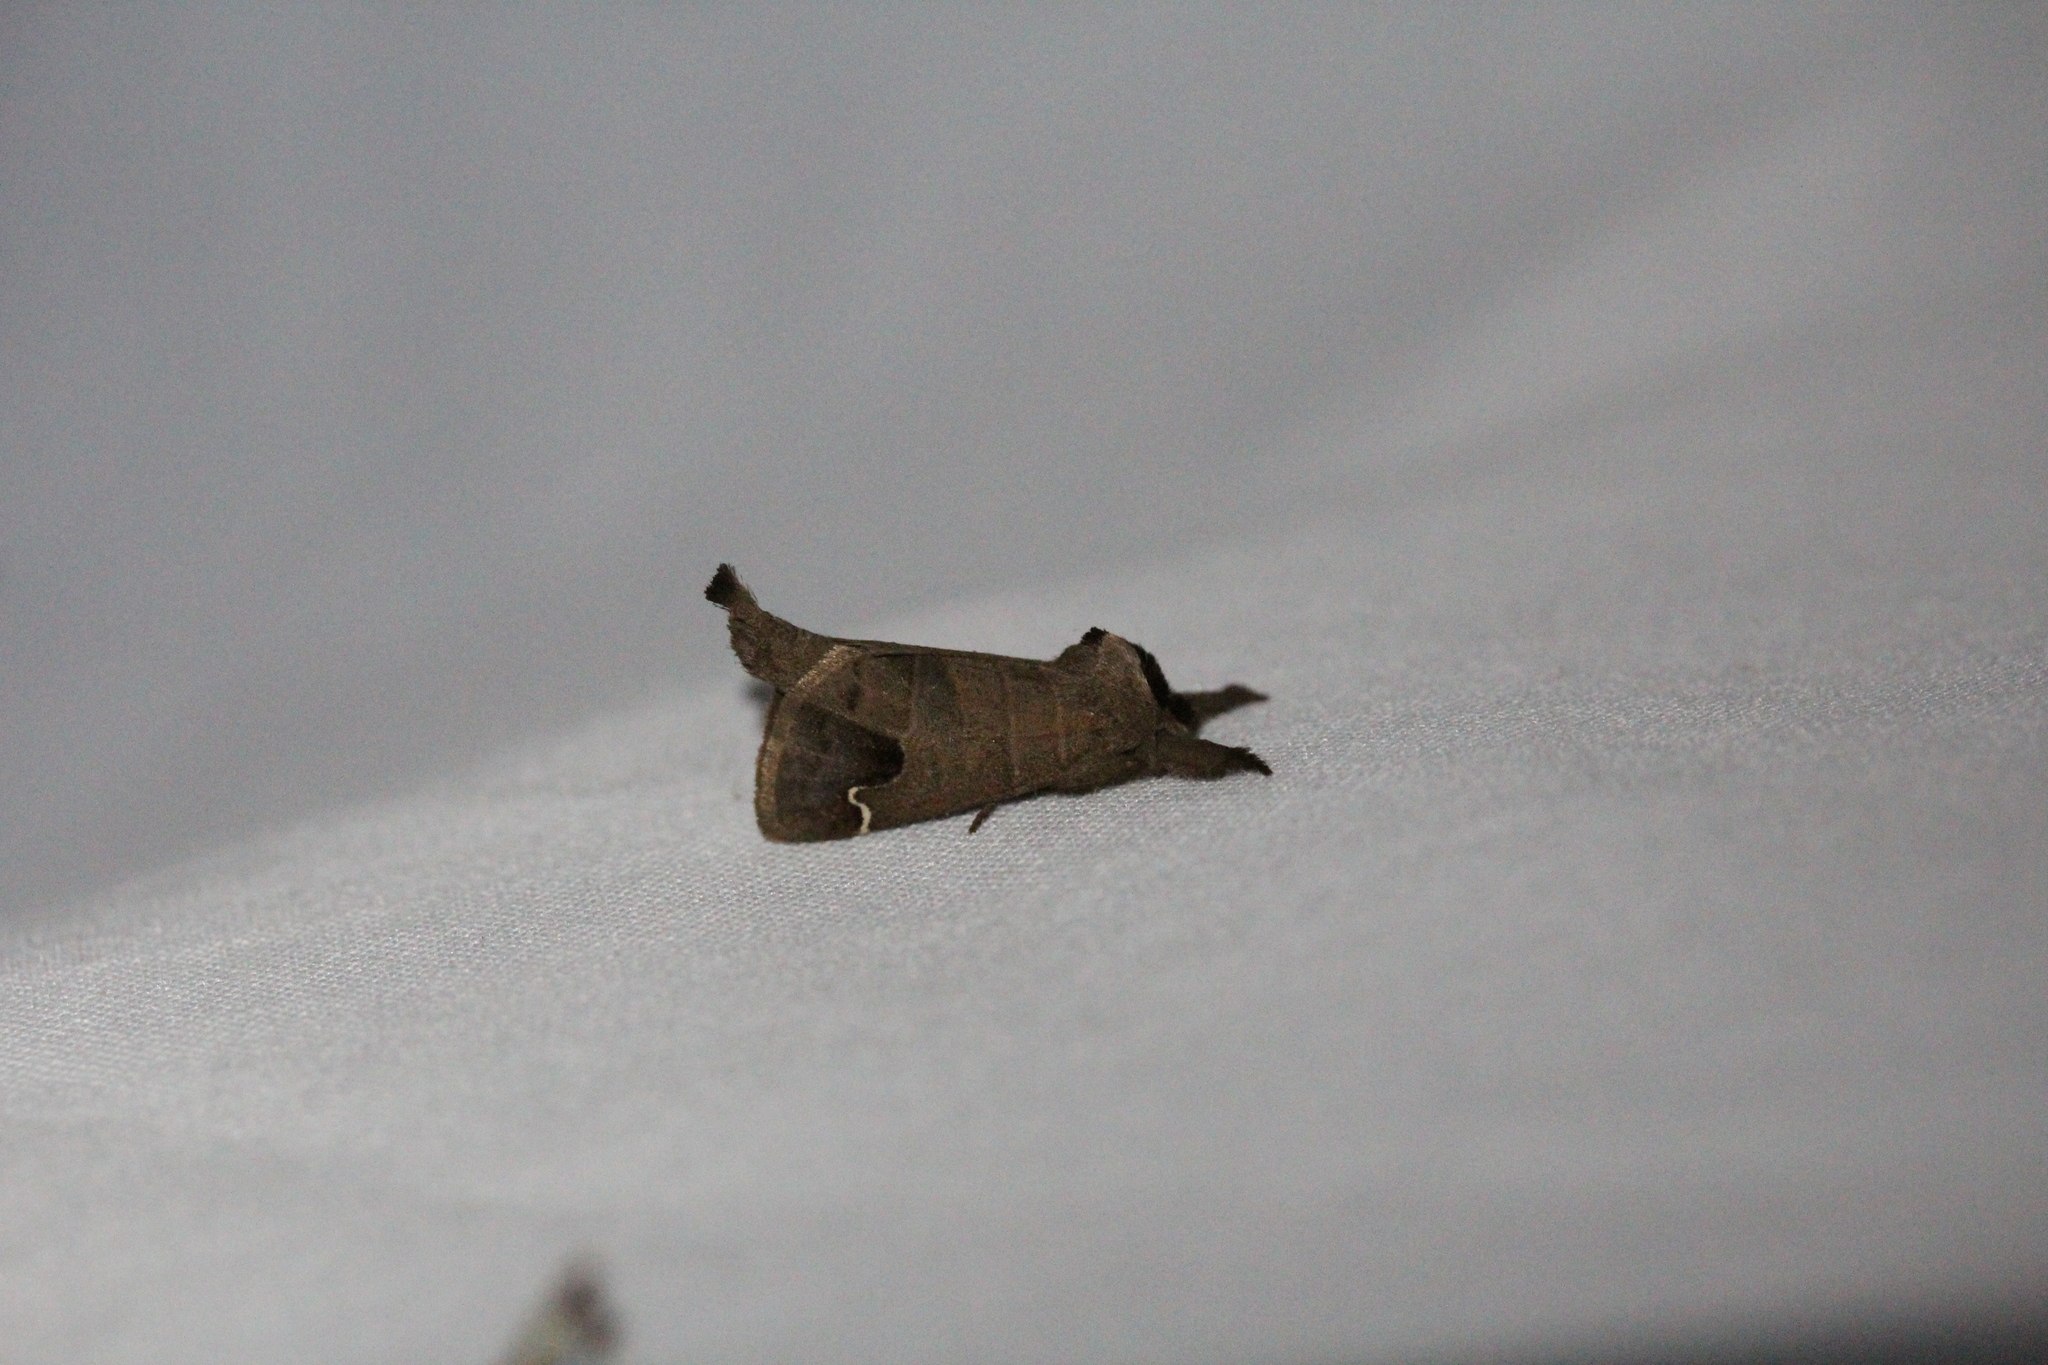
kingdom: Animalia
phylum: Arthropoda
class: Insecta
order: Lepidoptera
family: Notodontidae
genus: Clostera
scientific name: Clostera albosigma
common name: Sigmoid prominent
